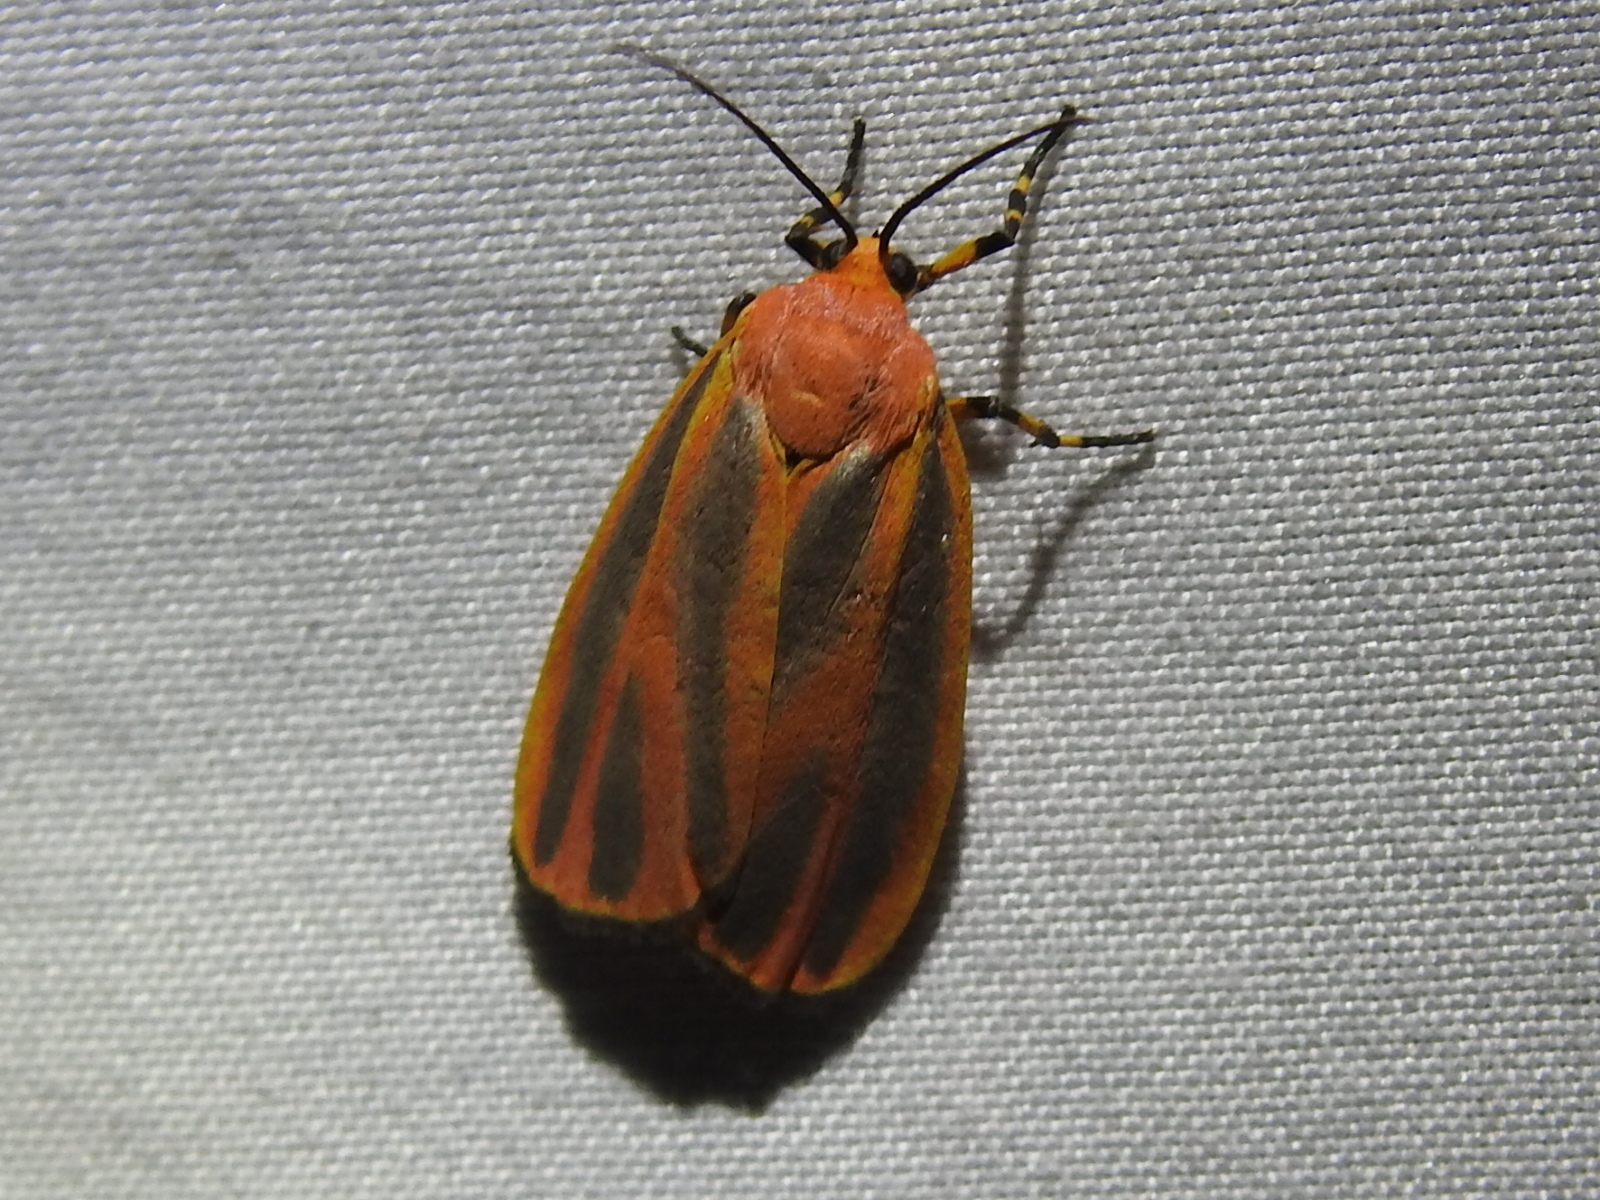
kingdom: Animalia
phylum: Arthropoda
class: Insecta
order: Lepidoptera
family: Erebidae
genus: Hypoprepia
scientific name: Hypoprepia
